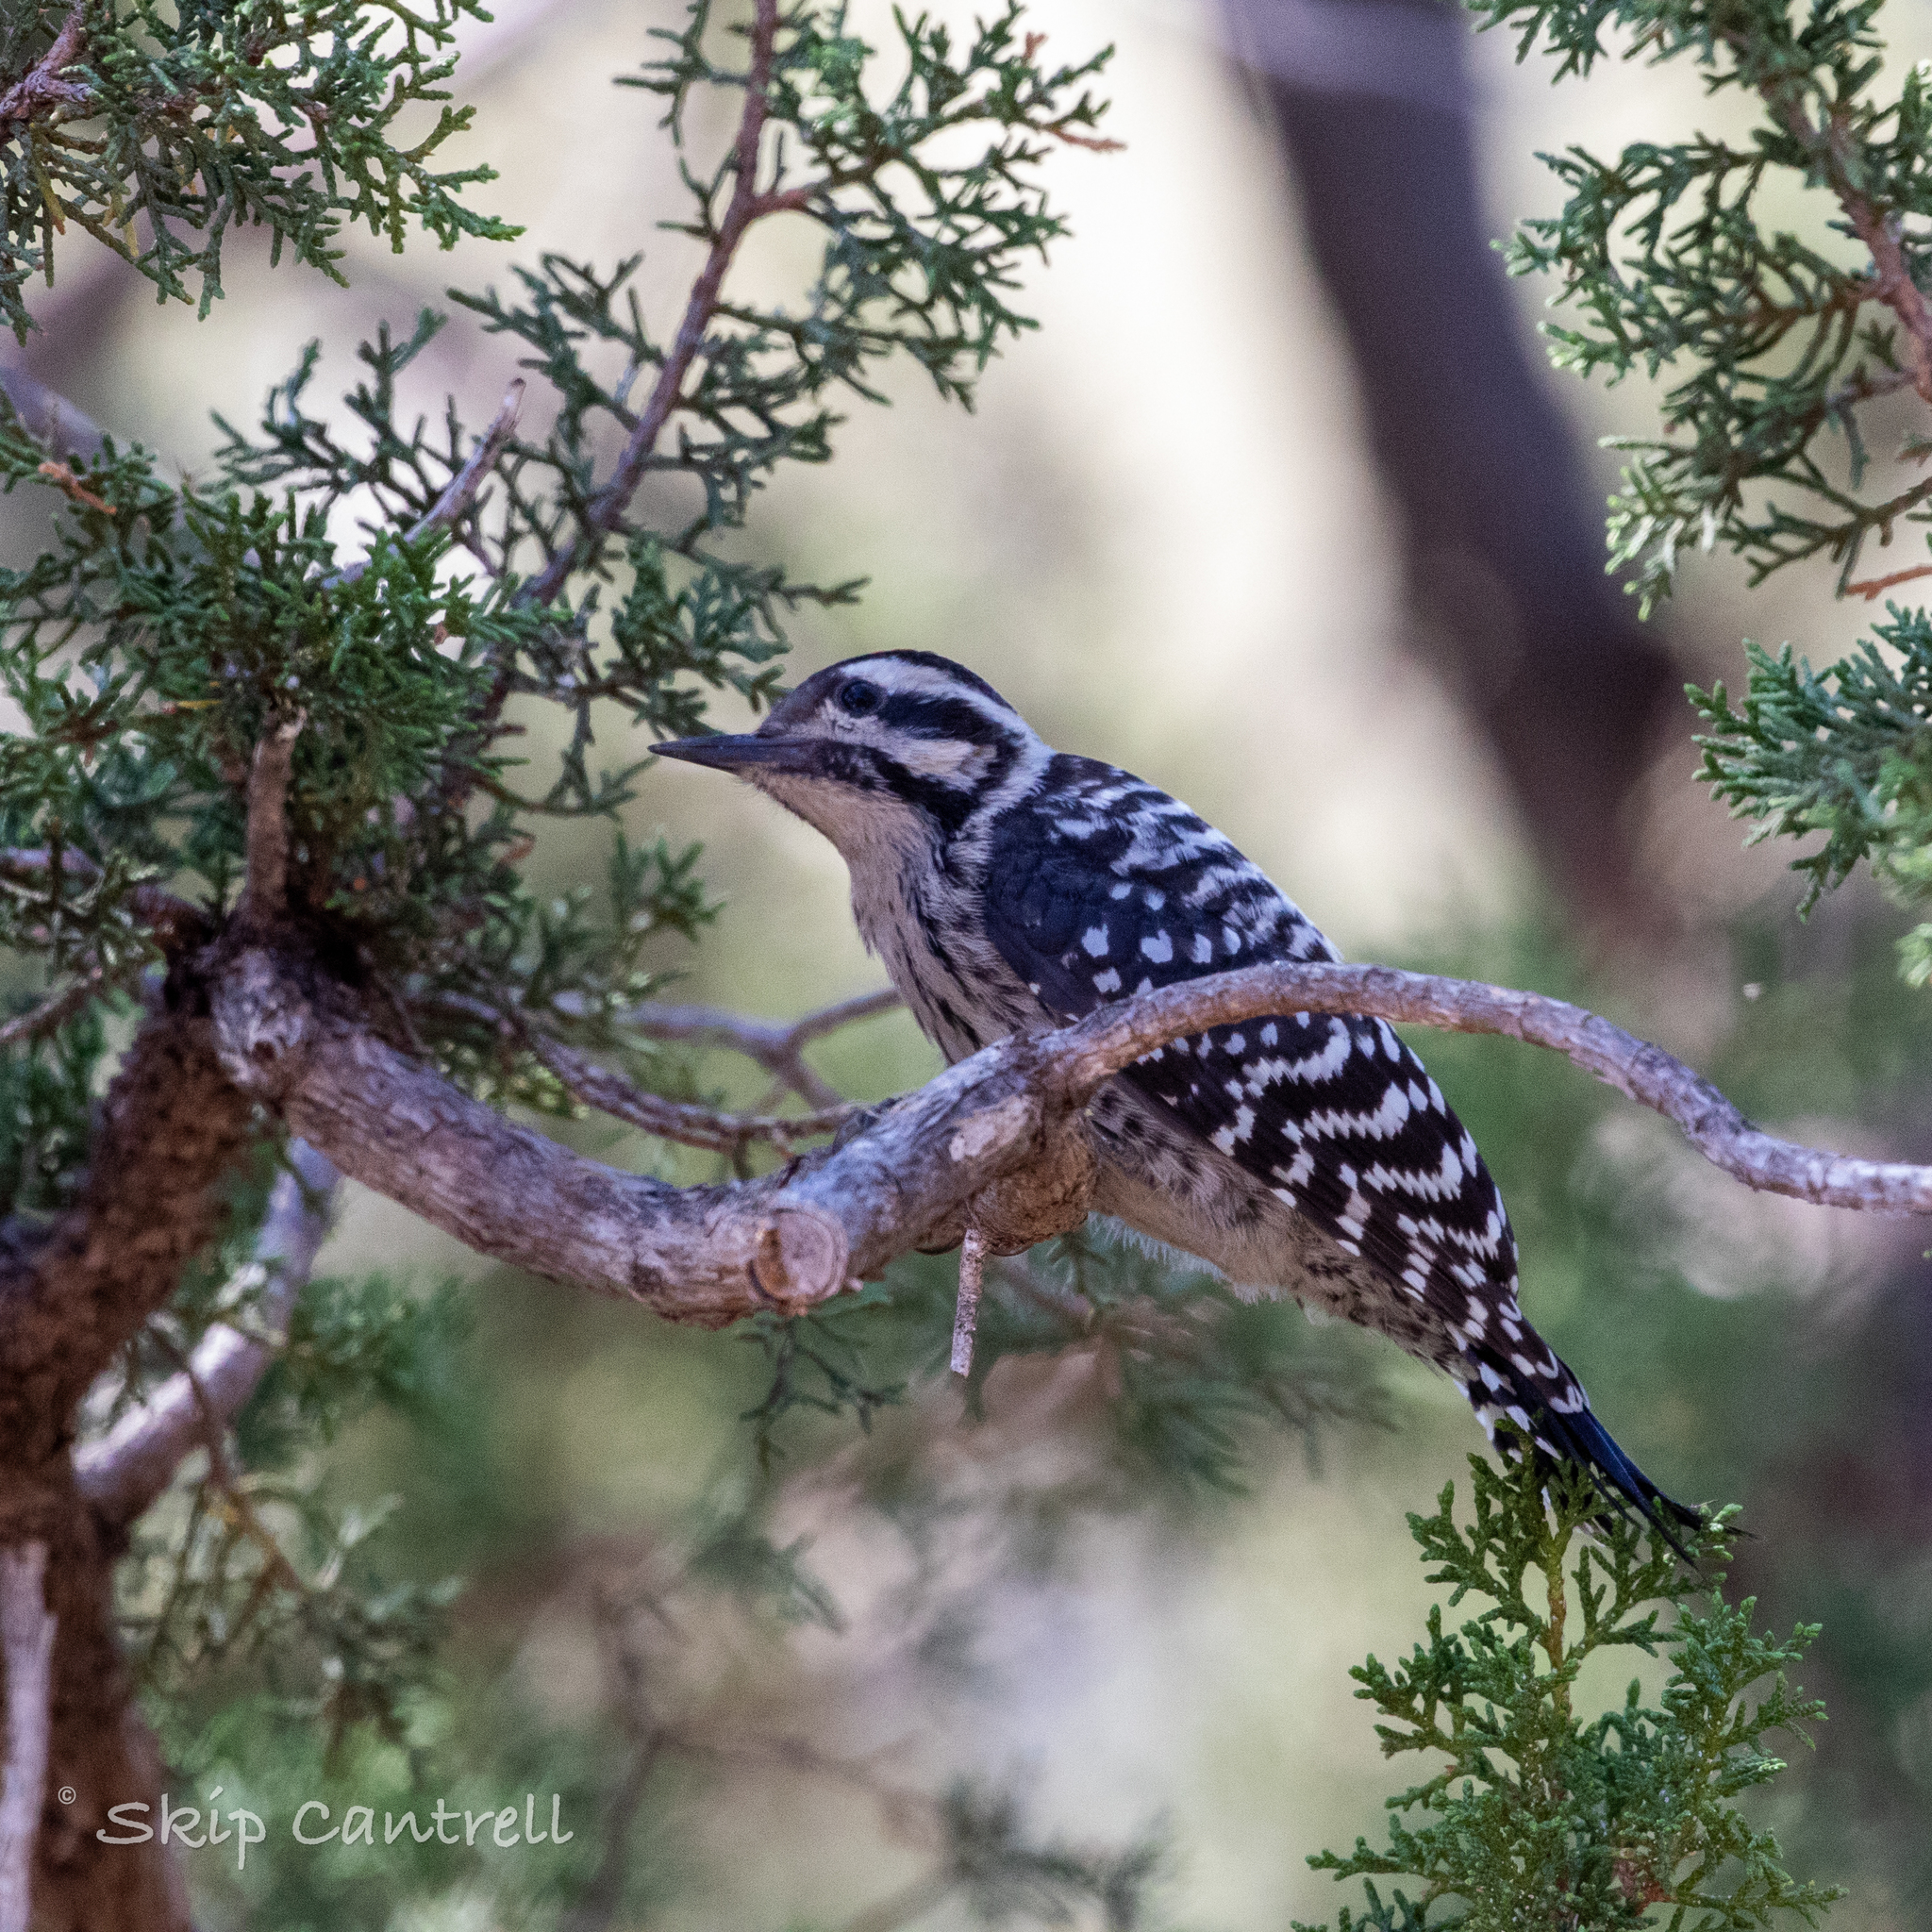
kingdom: Animalia
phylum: Chordata
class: Aves
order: Piciformes
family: Picidae
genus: Dryobates
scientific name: Dryobates scalaris
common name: Ladder-backed woodpecker
